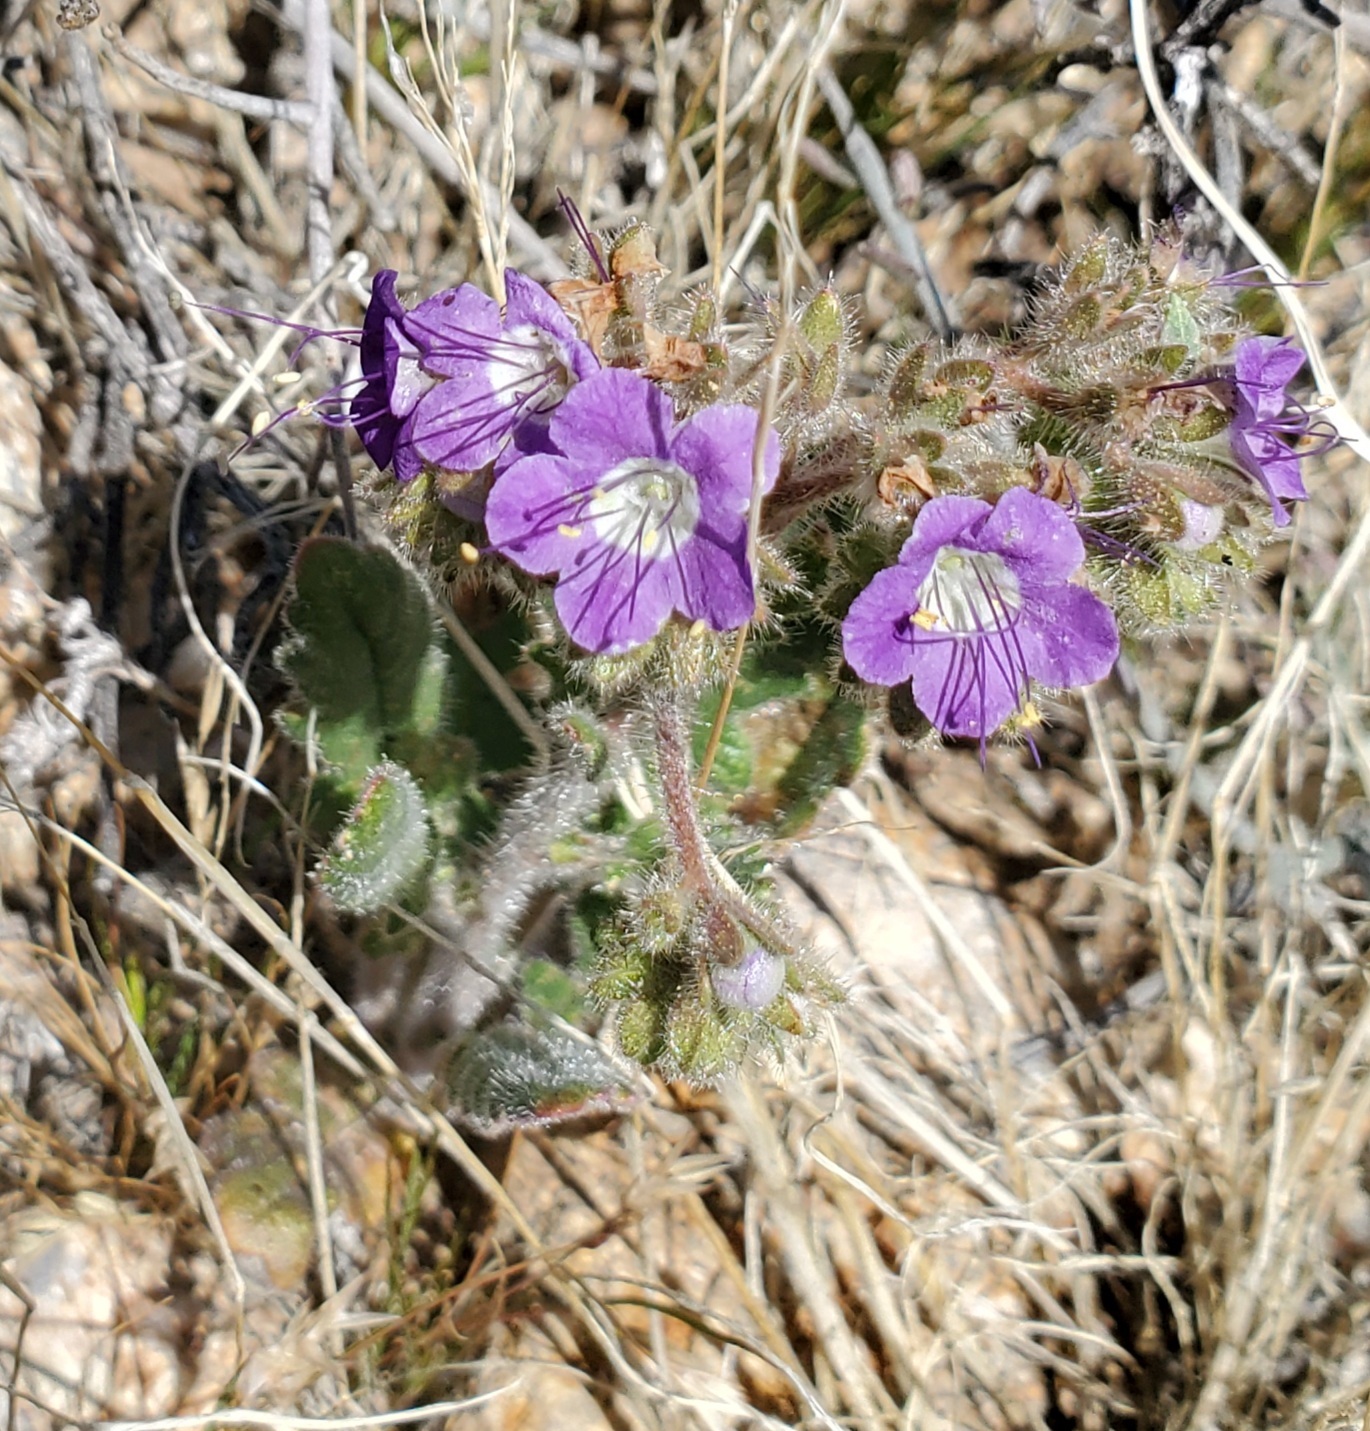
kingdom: Plantae
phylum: Tracheophyta
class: Magnoliopsida
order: Boraginales
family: Hydrophyllaceae
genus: Phacelia
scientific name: Phacelia crenulata
